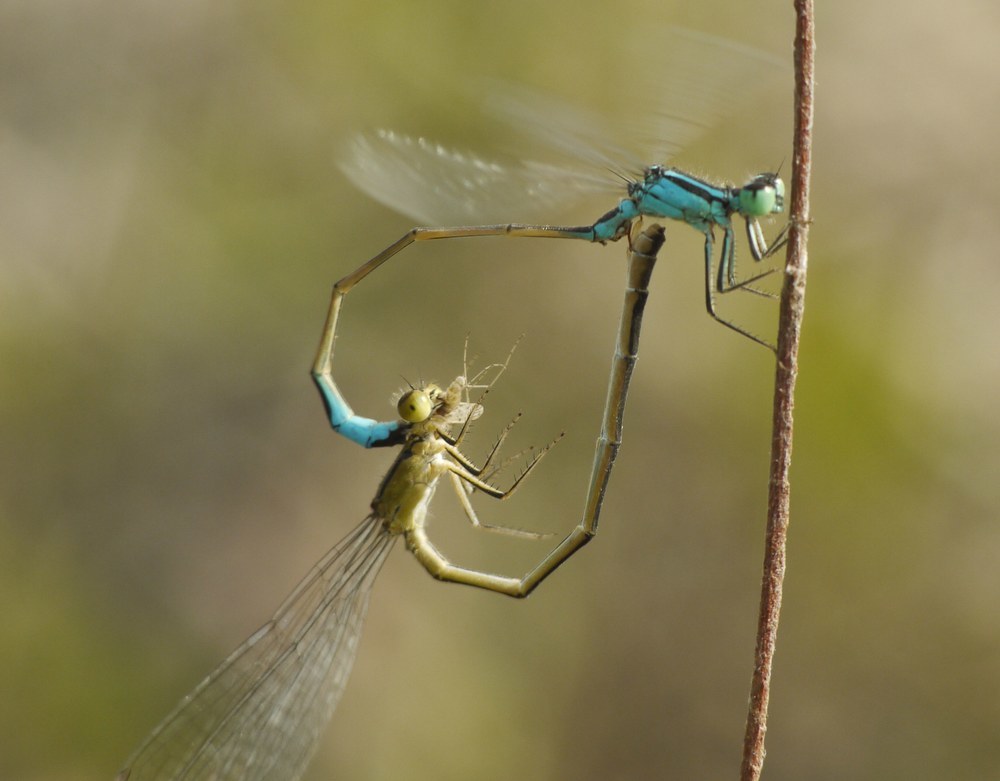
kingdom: Animalia
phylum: Arthropoda
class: Insecta
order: Odonata
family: Coenagrionidae
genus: Ischnura
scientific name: Ischnura elegans
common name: Blue-tailed damselfly
